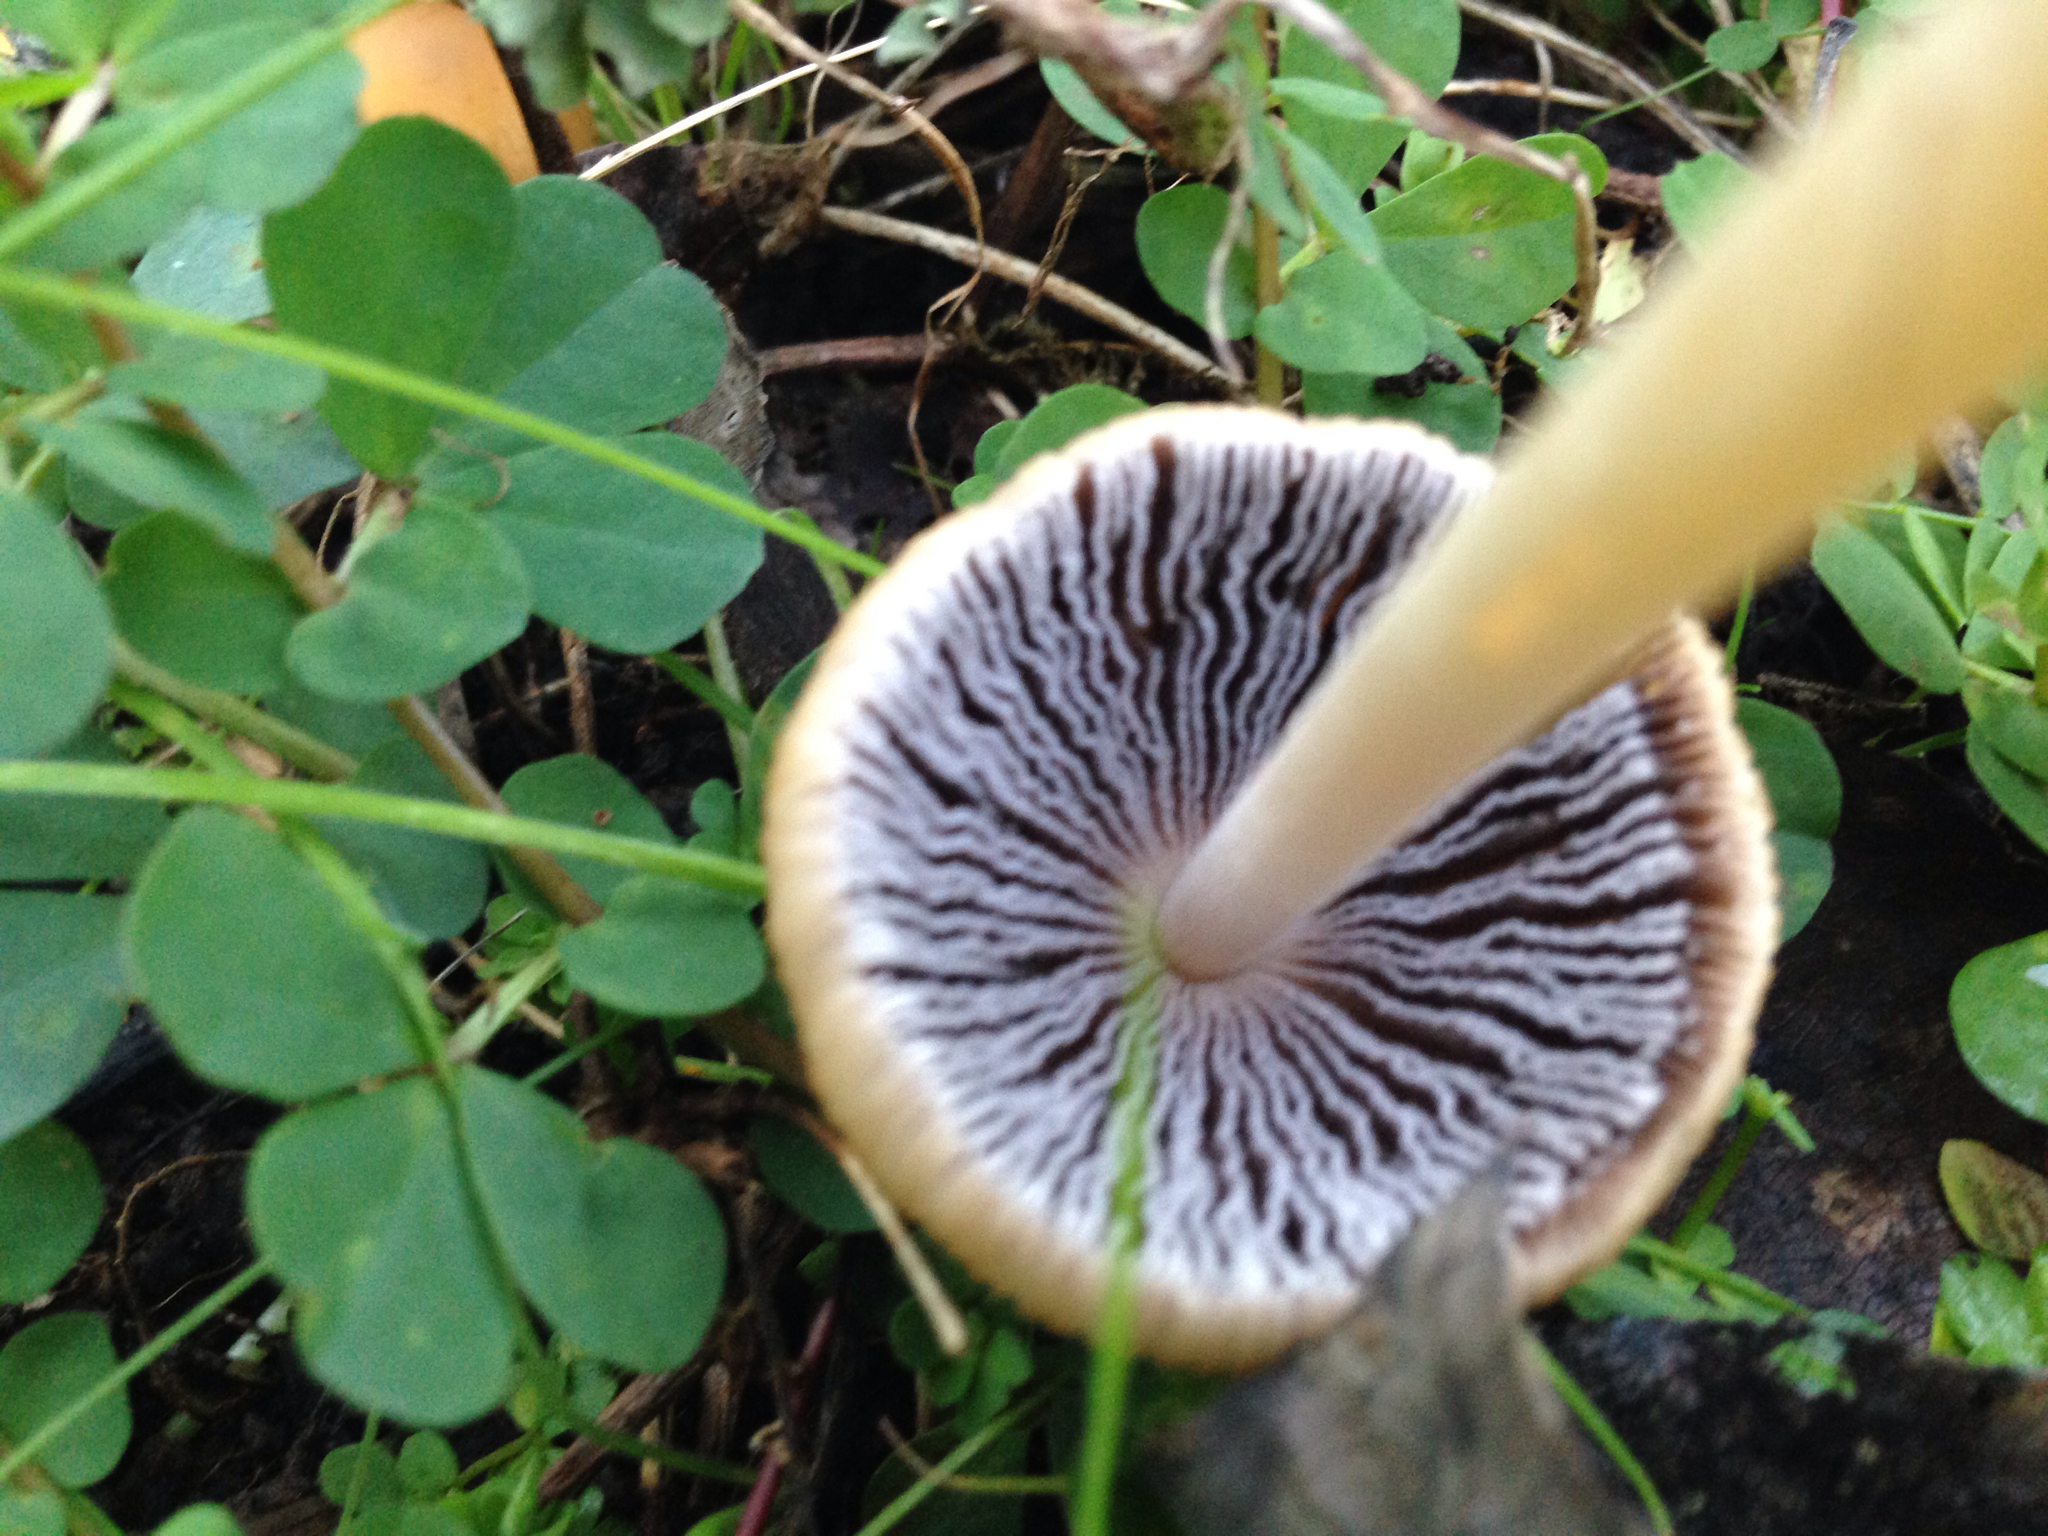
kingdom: Fungi
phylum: Basidiomycota
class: Agaricomycetes
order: Agaricales
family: Psathyrellaceae
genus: Coprinellus
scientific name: Coprinellus micaceus
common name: Glistening ink-cap
